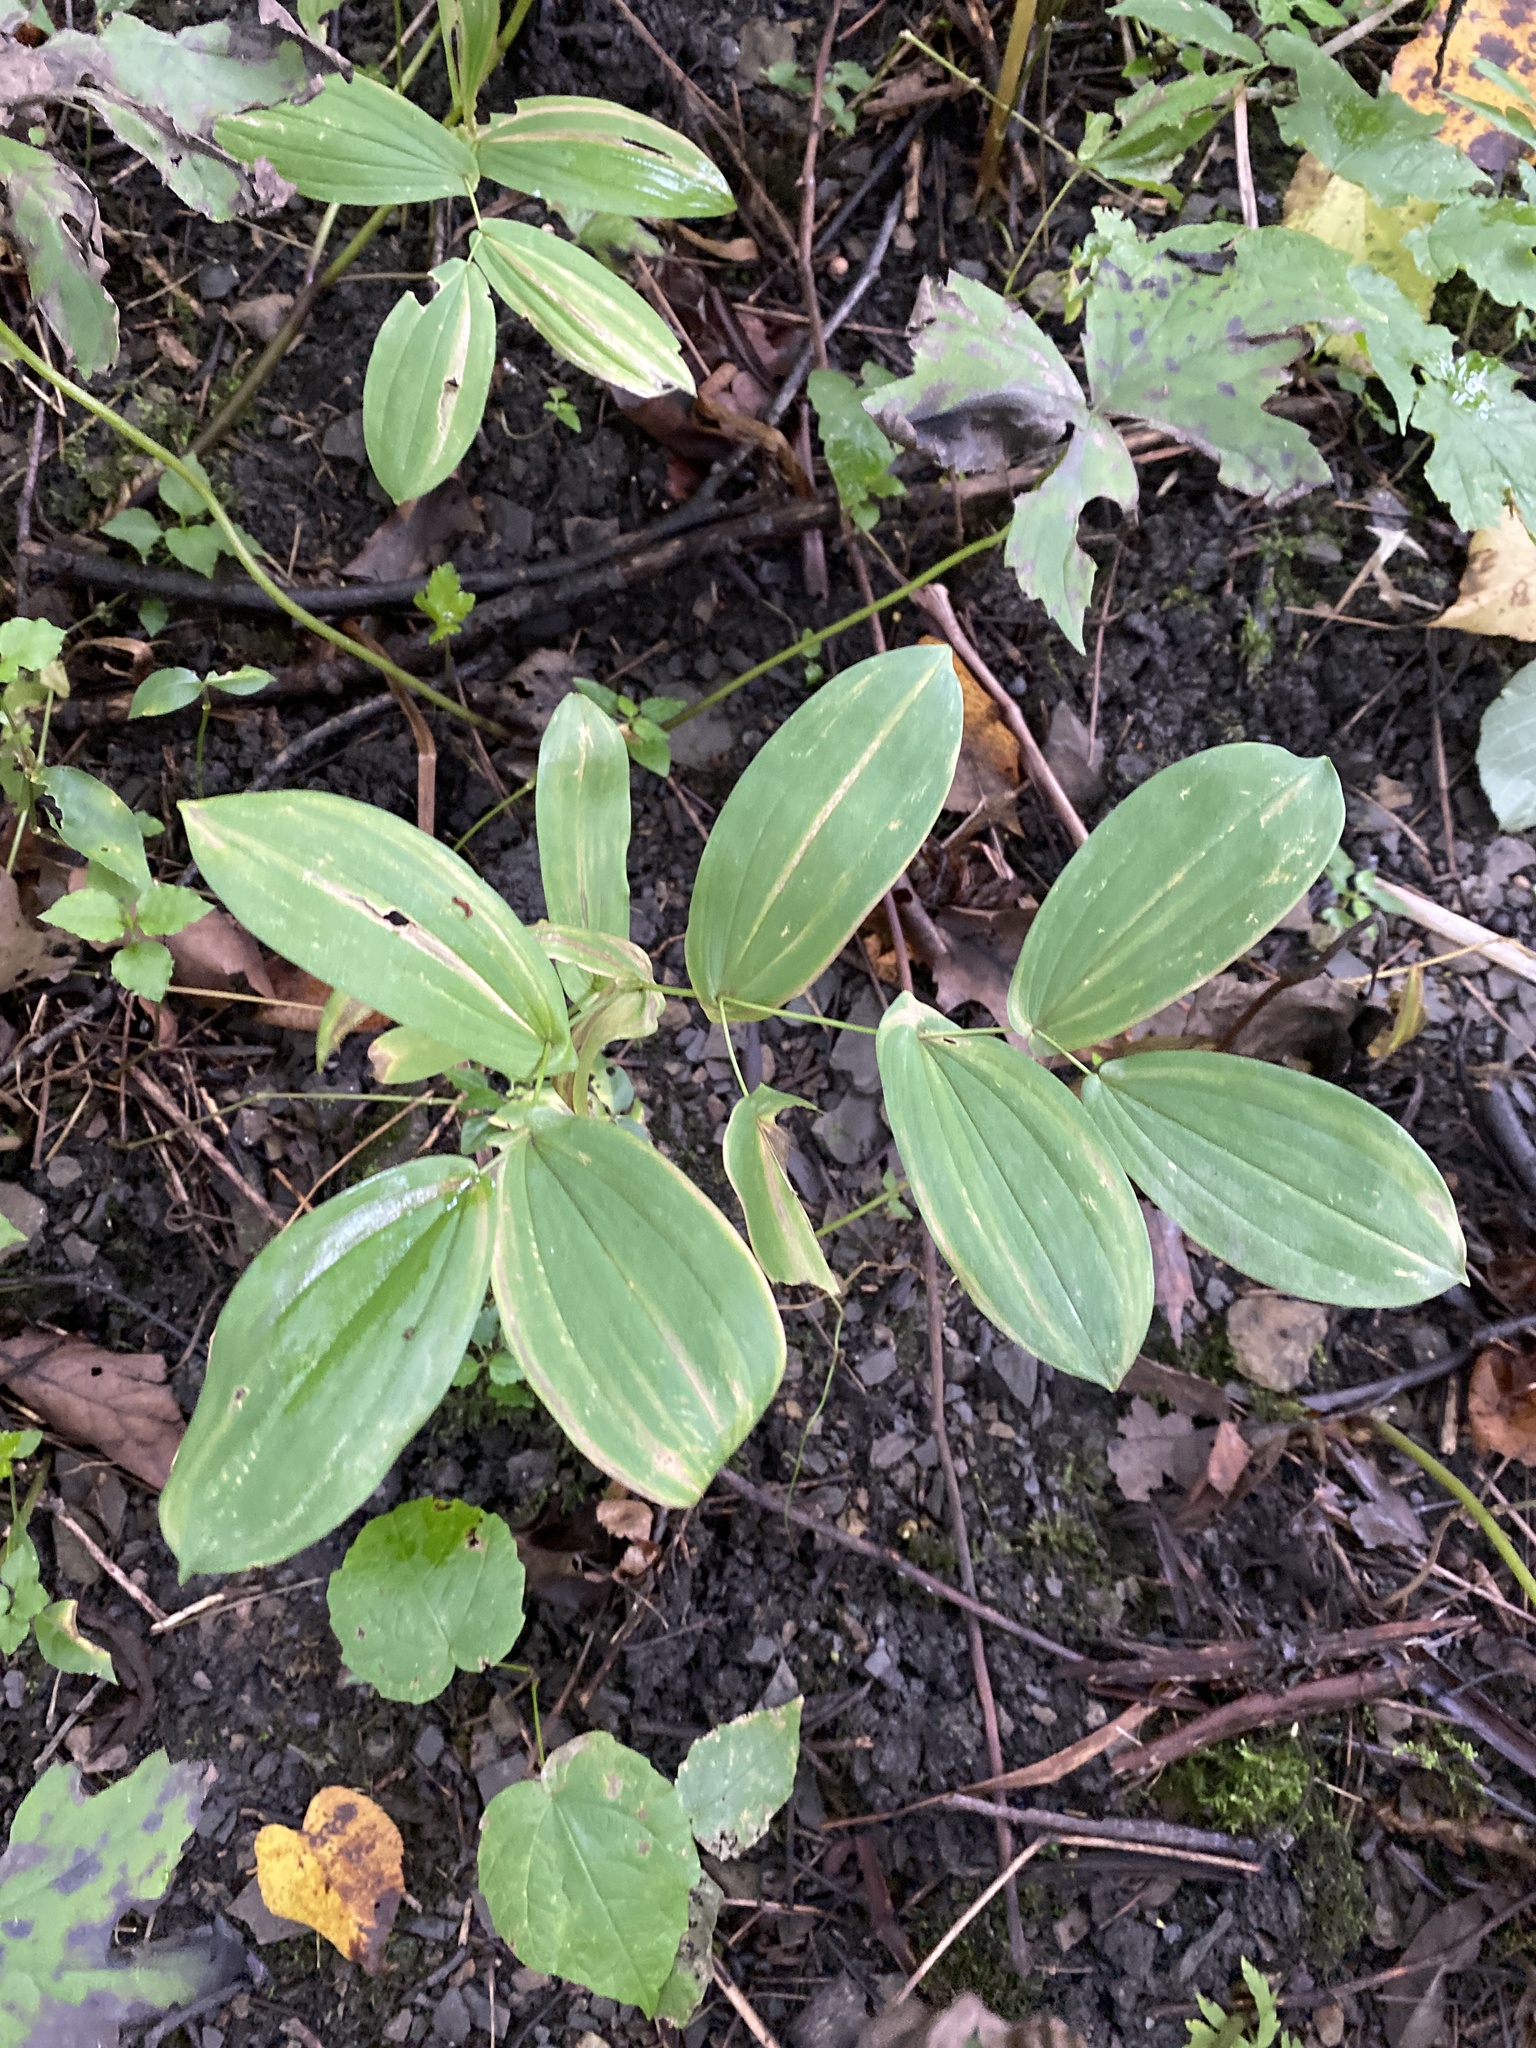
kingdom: Plantae
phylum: Tracheophyta
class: Liliopsida
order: Liliales
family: Colchicaceae
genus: Uvularia
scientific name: Uvularia grandiflora
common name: Bellwort
